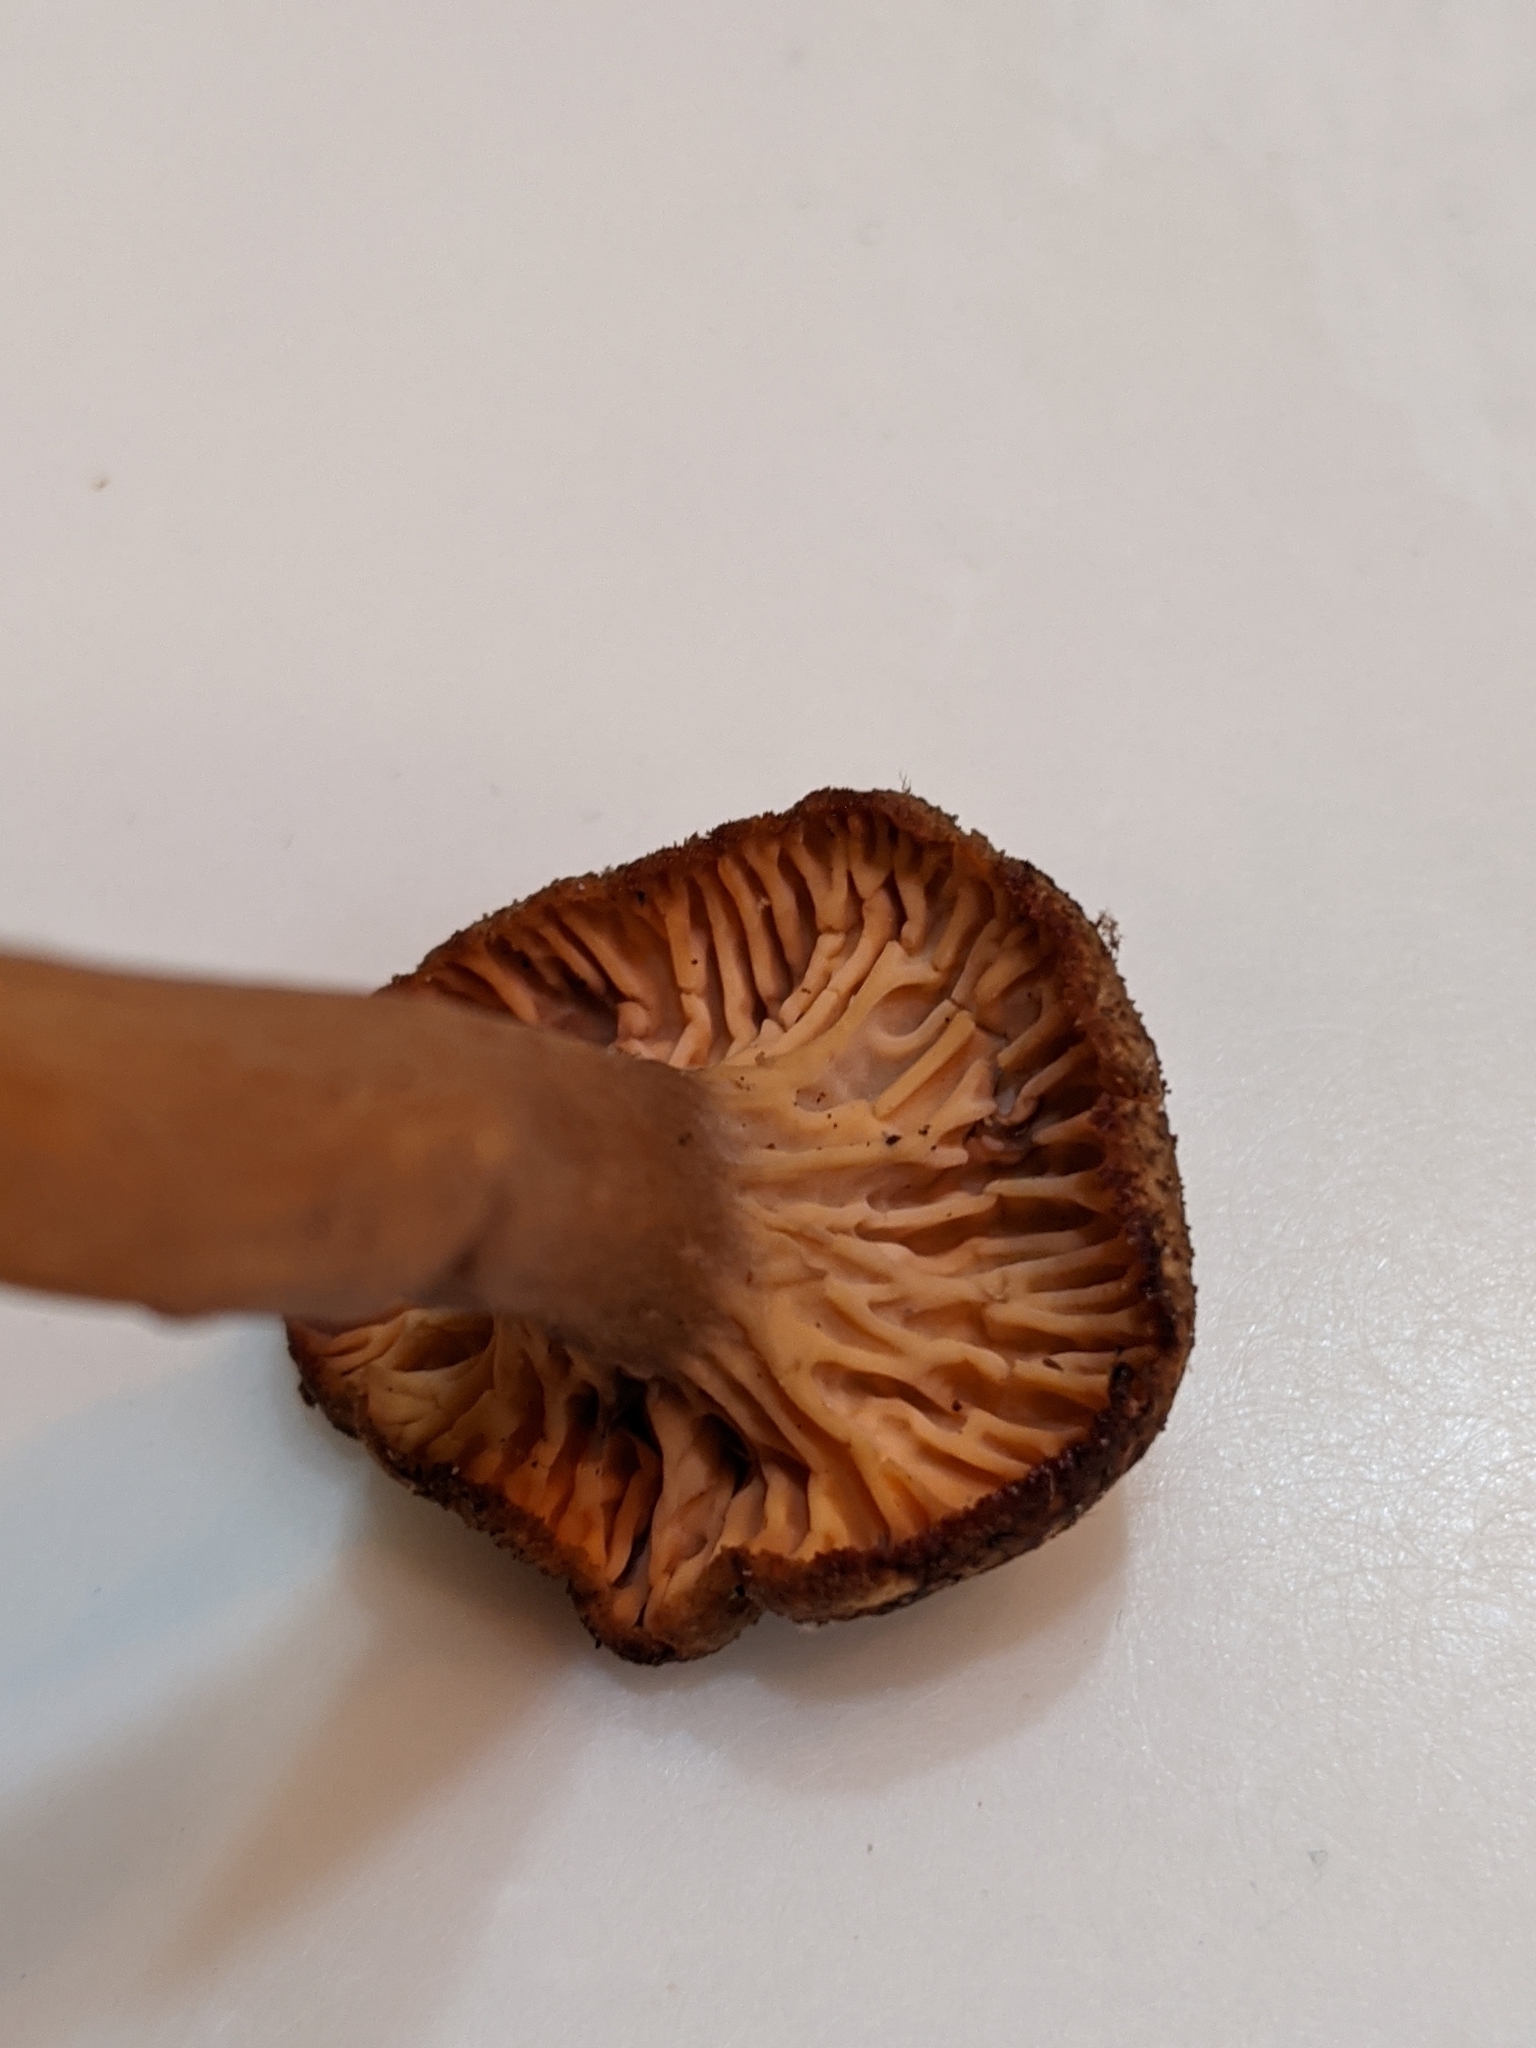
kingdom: Fungi
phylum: Basidiomycota
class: Agaricomycetes
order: Cantharellales
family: Hydnaceae
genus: Craterellus
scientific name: Craterellus tubaeformis
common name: Yellowfoot
